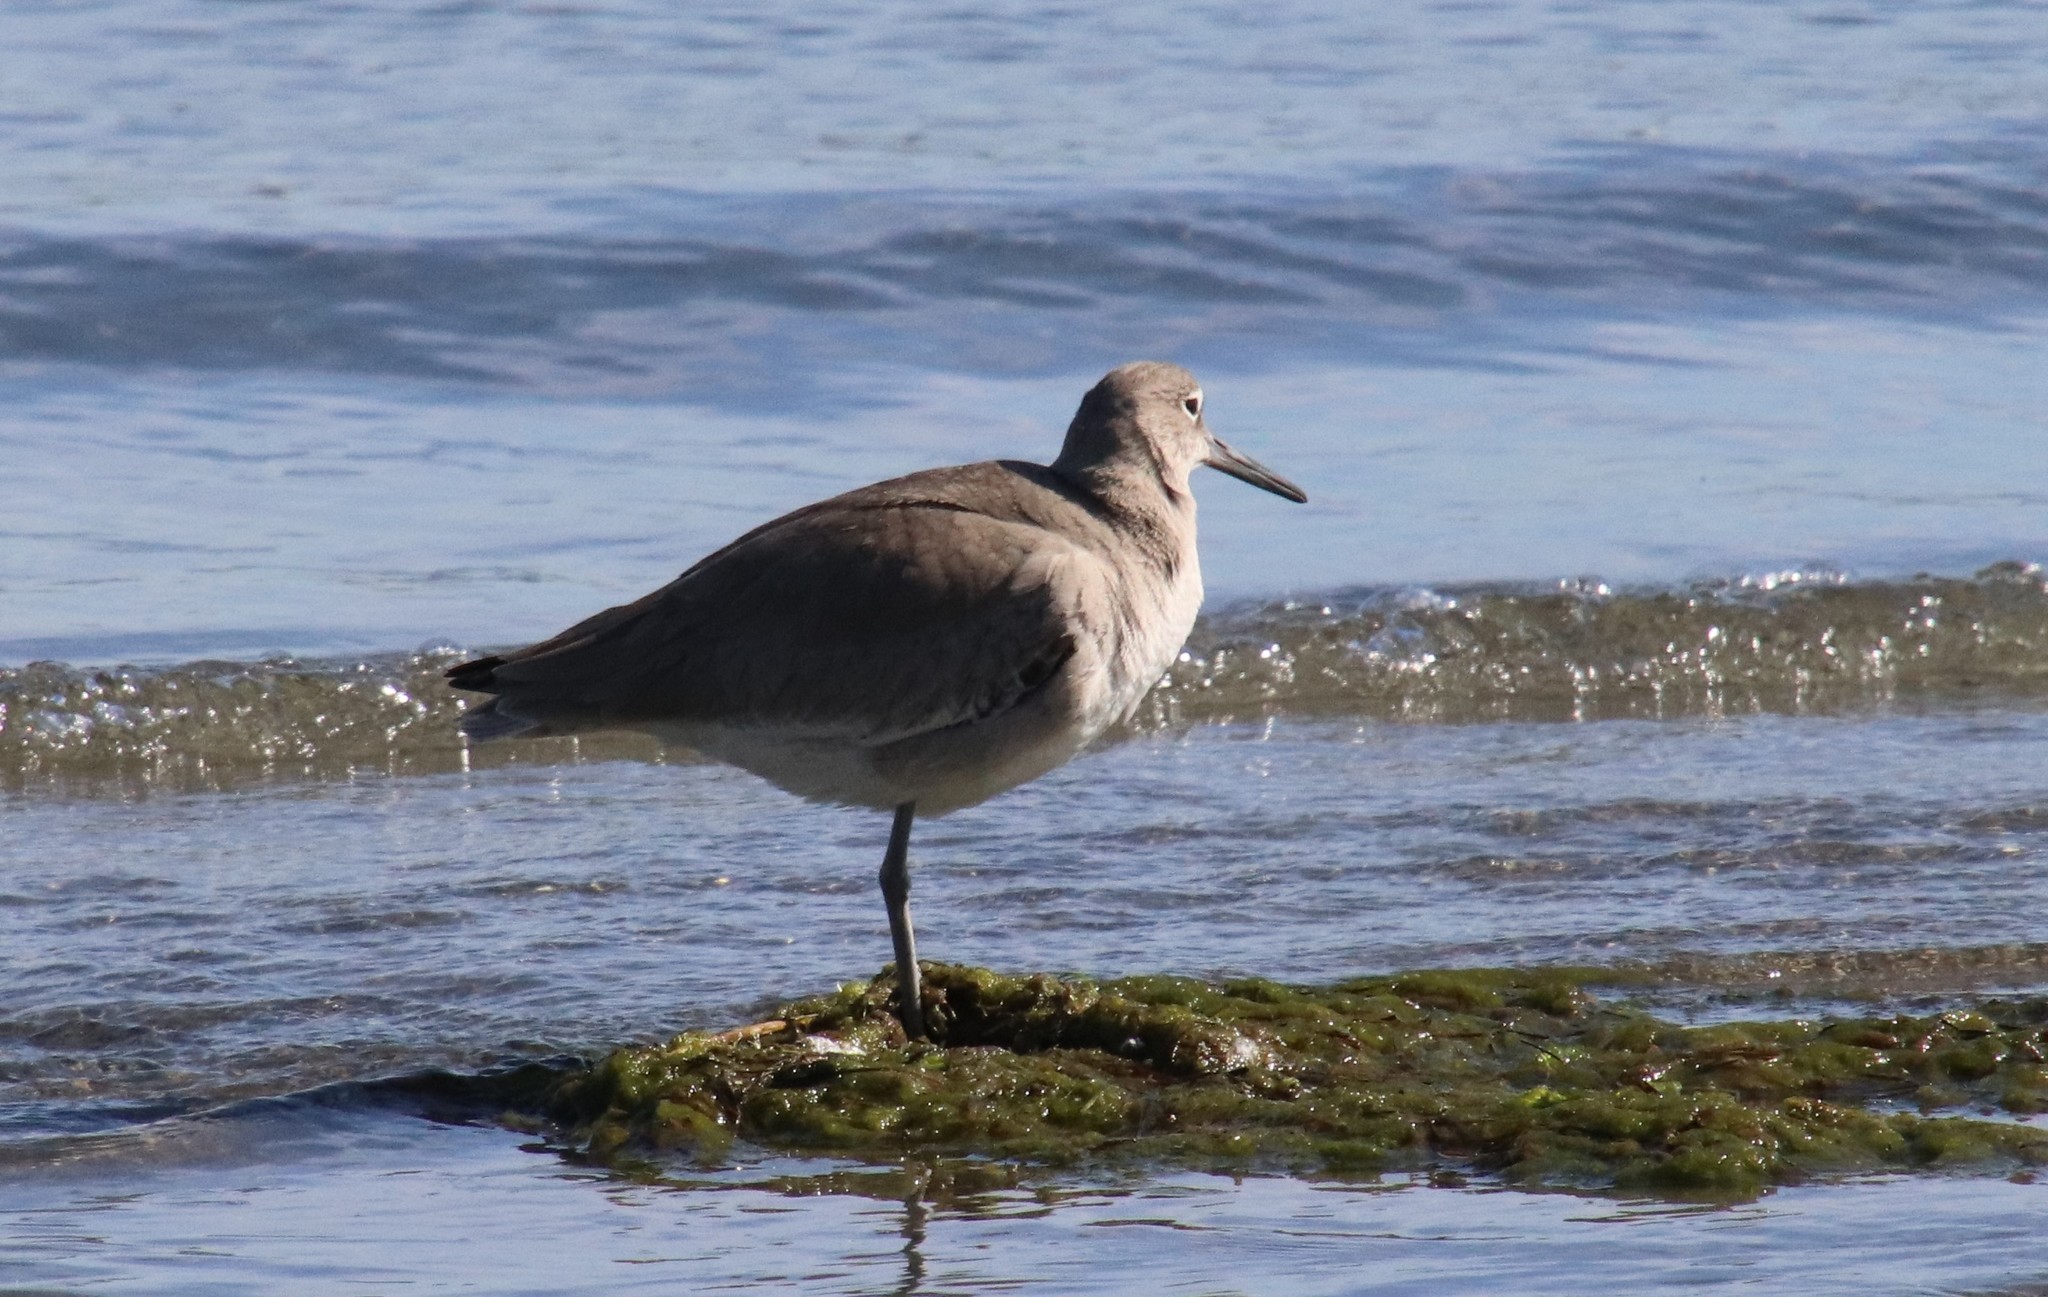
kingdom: Animalia
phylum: Chordata
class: Aves
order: Charadriiformes
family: Scolopacidae
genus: Tringa
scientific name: Tringa semipalmata
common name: Willet
